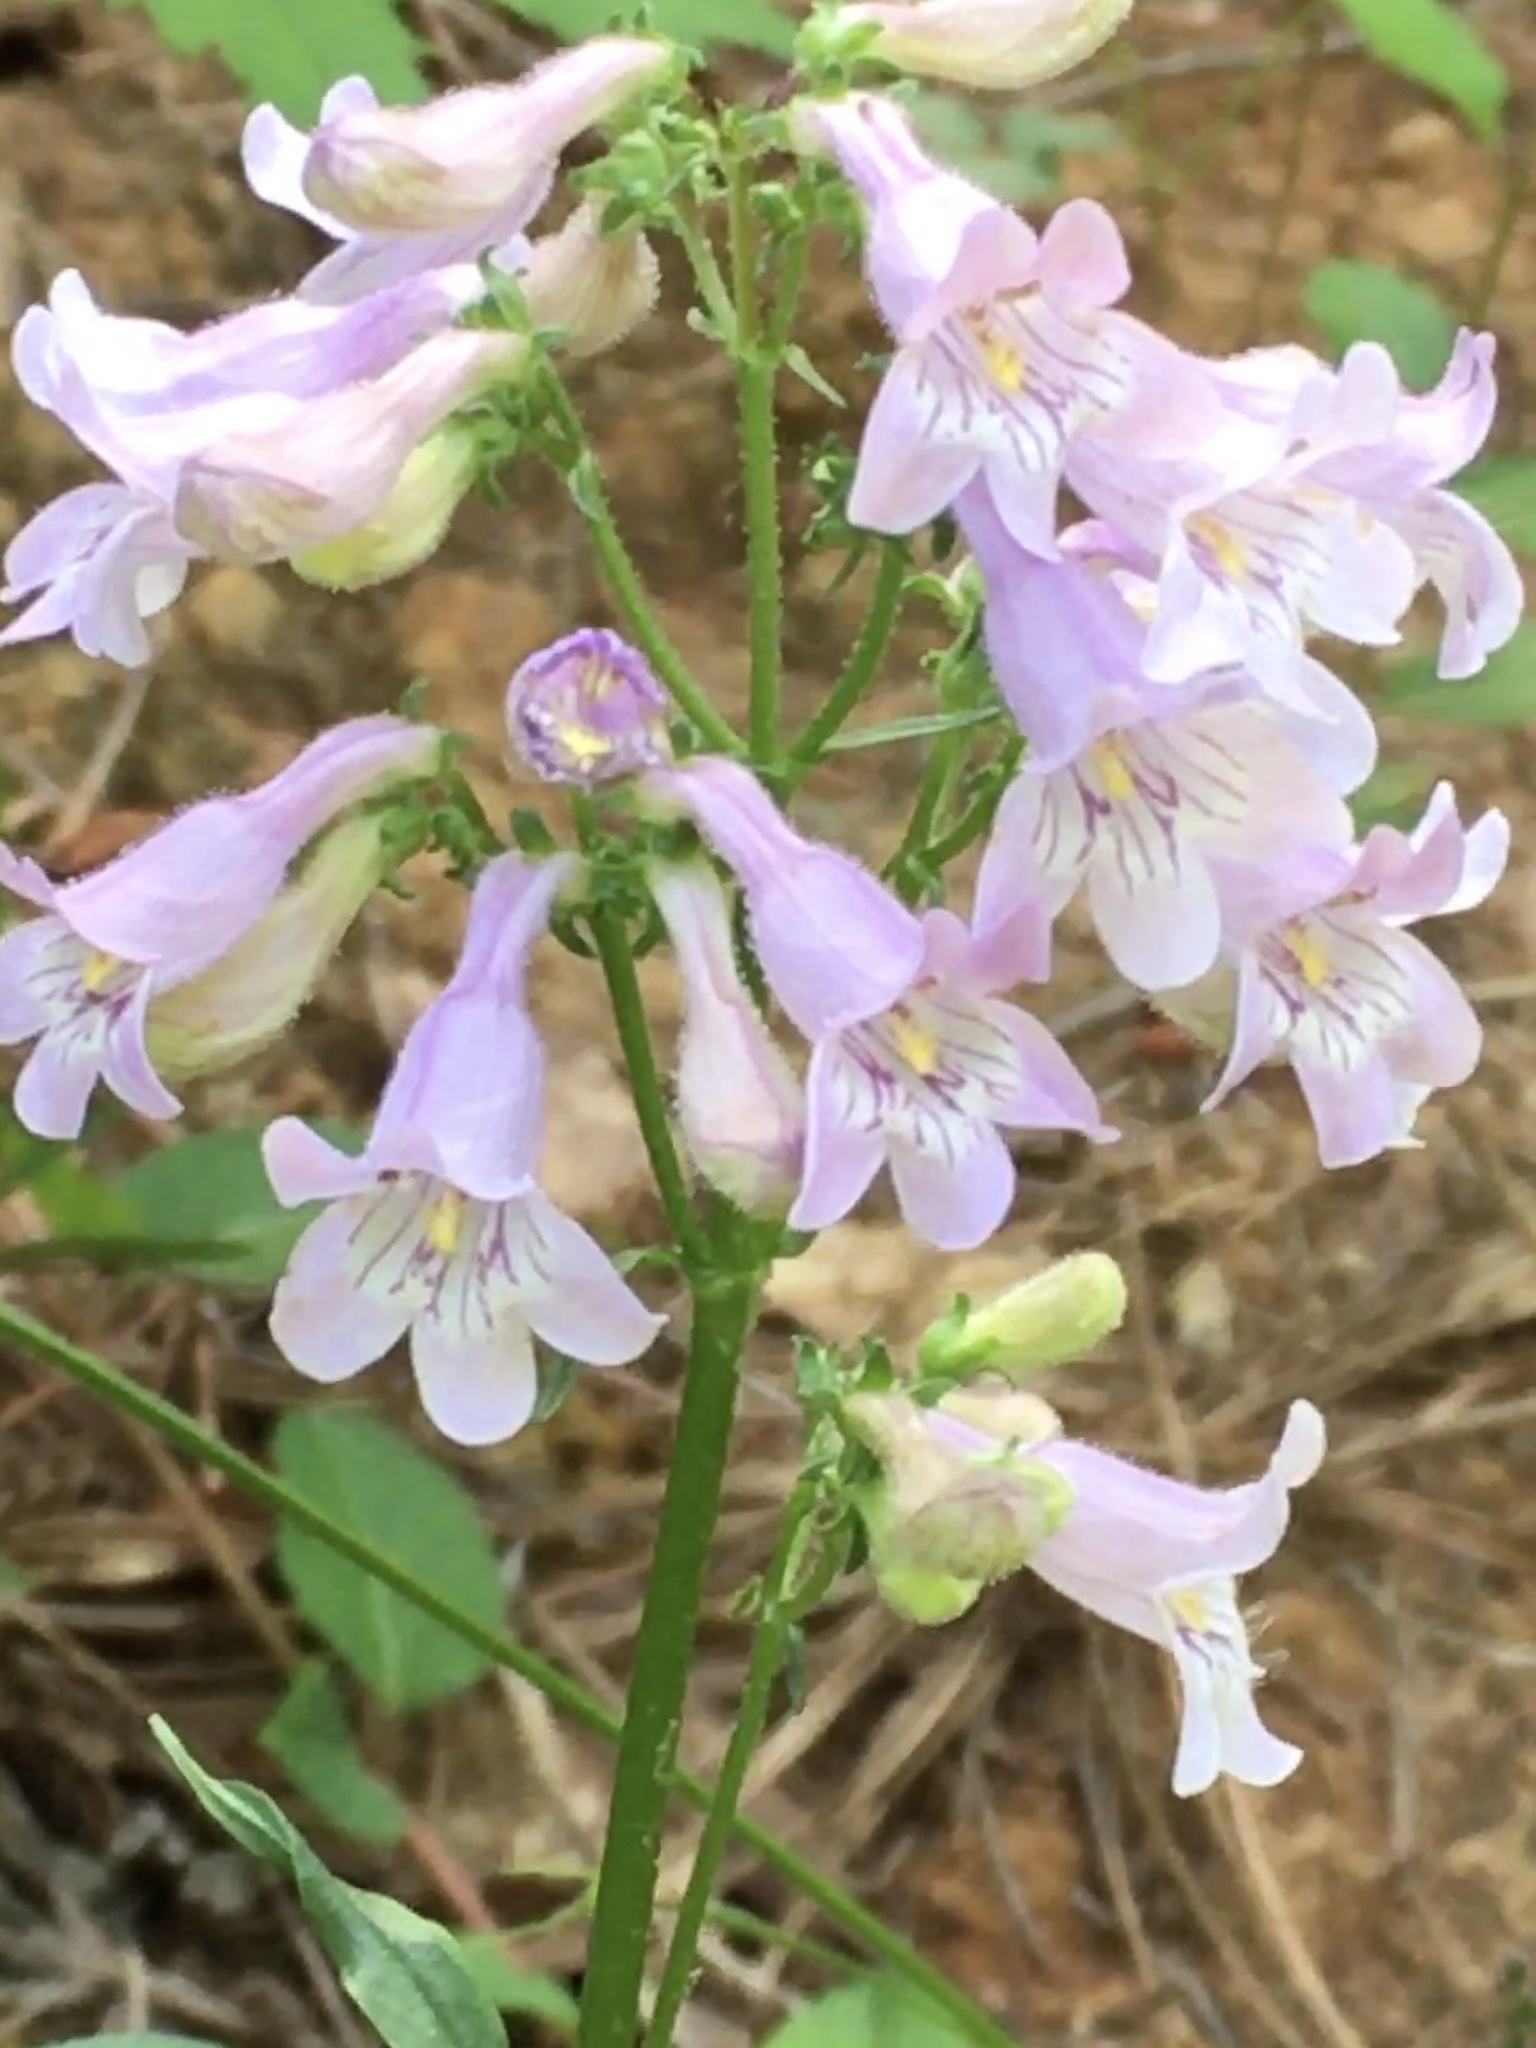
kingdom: Plantae
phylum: Tracheophyta
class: Magnoliopsida
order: Lamiales
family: Plantaginaceae
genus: Penstemon
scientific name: Penstemon laevigatus
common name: Eastern beardtongue
